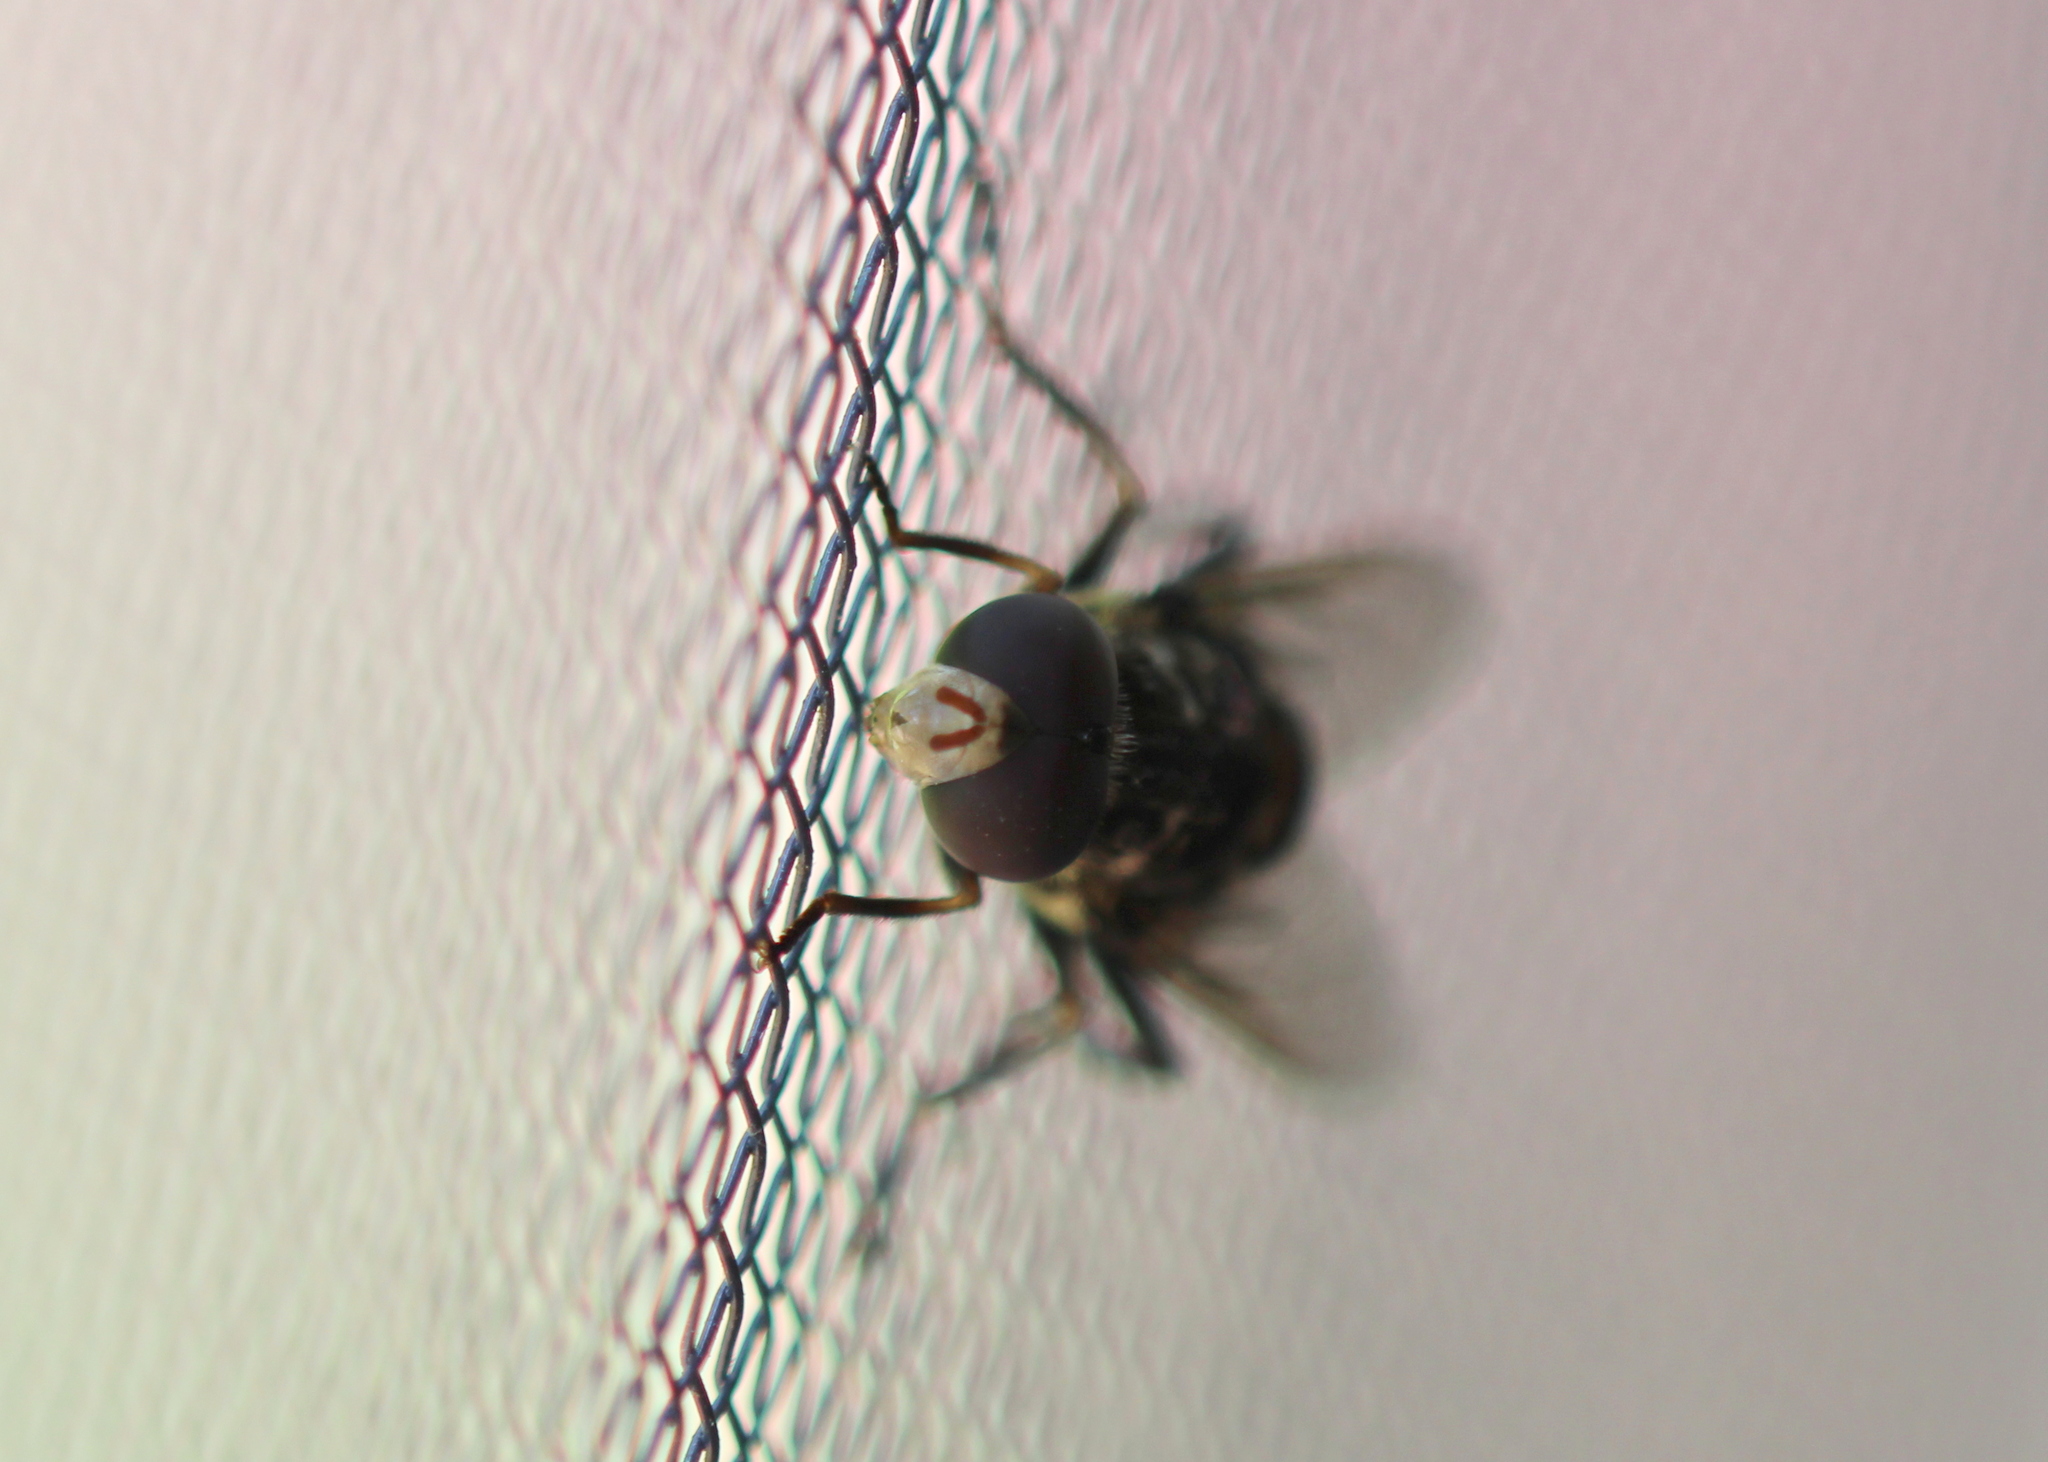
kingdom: Animalia
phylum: Arthropoda
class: Insecta
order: Diptera
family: Syrphidae
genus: Sericomyia
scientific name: Sericomyia lata
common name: White-spotted pond fly
